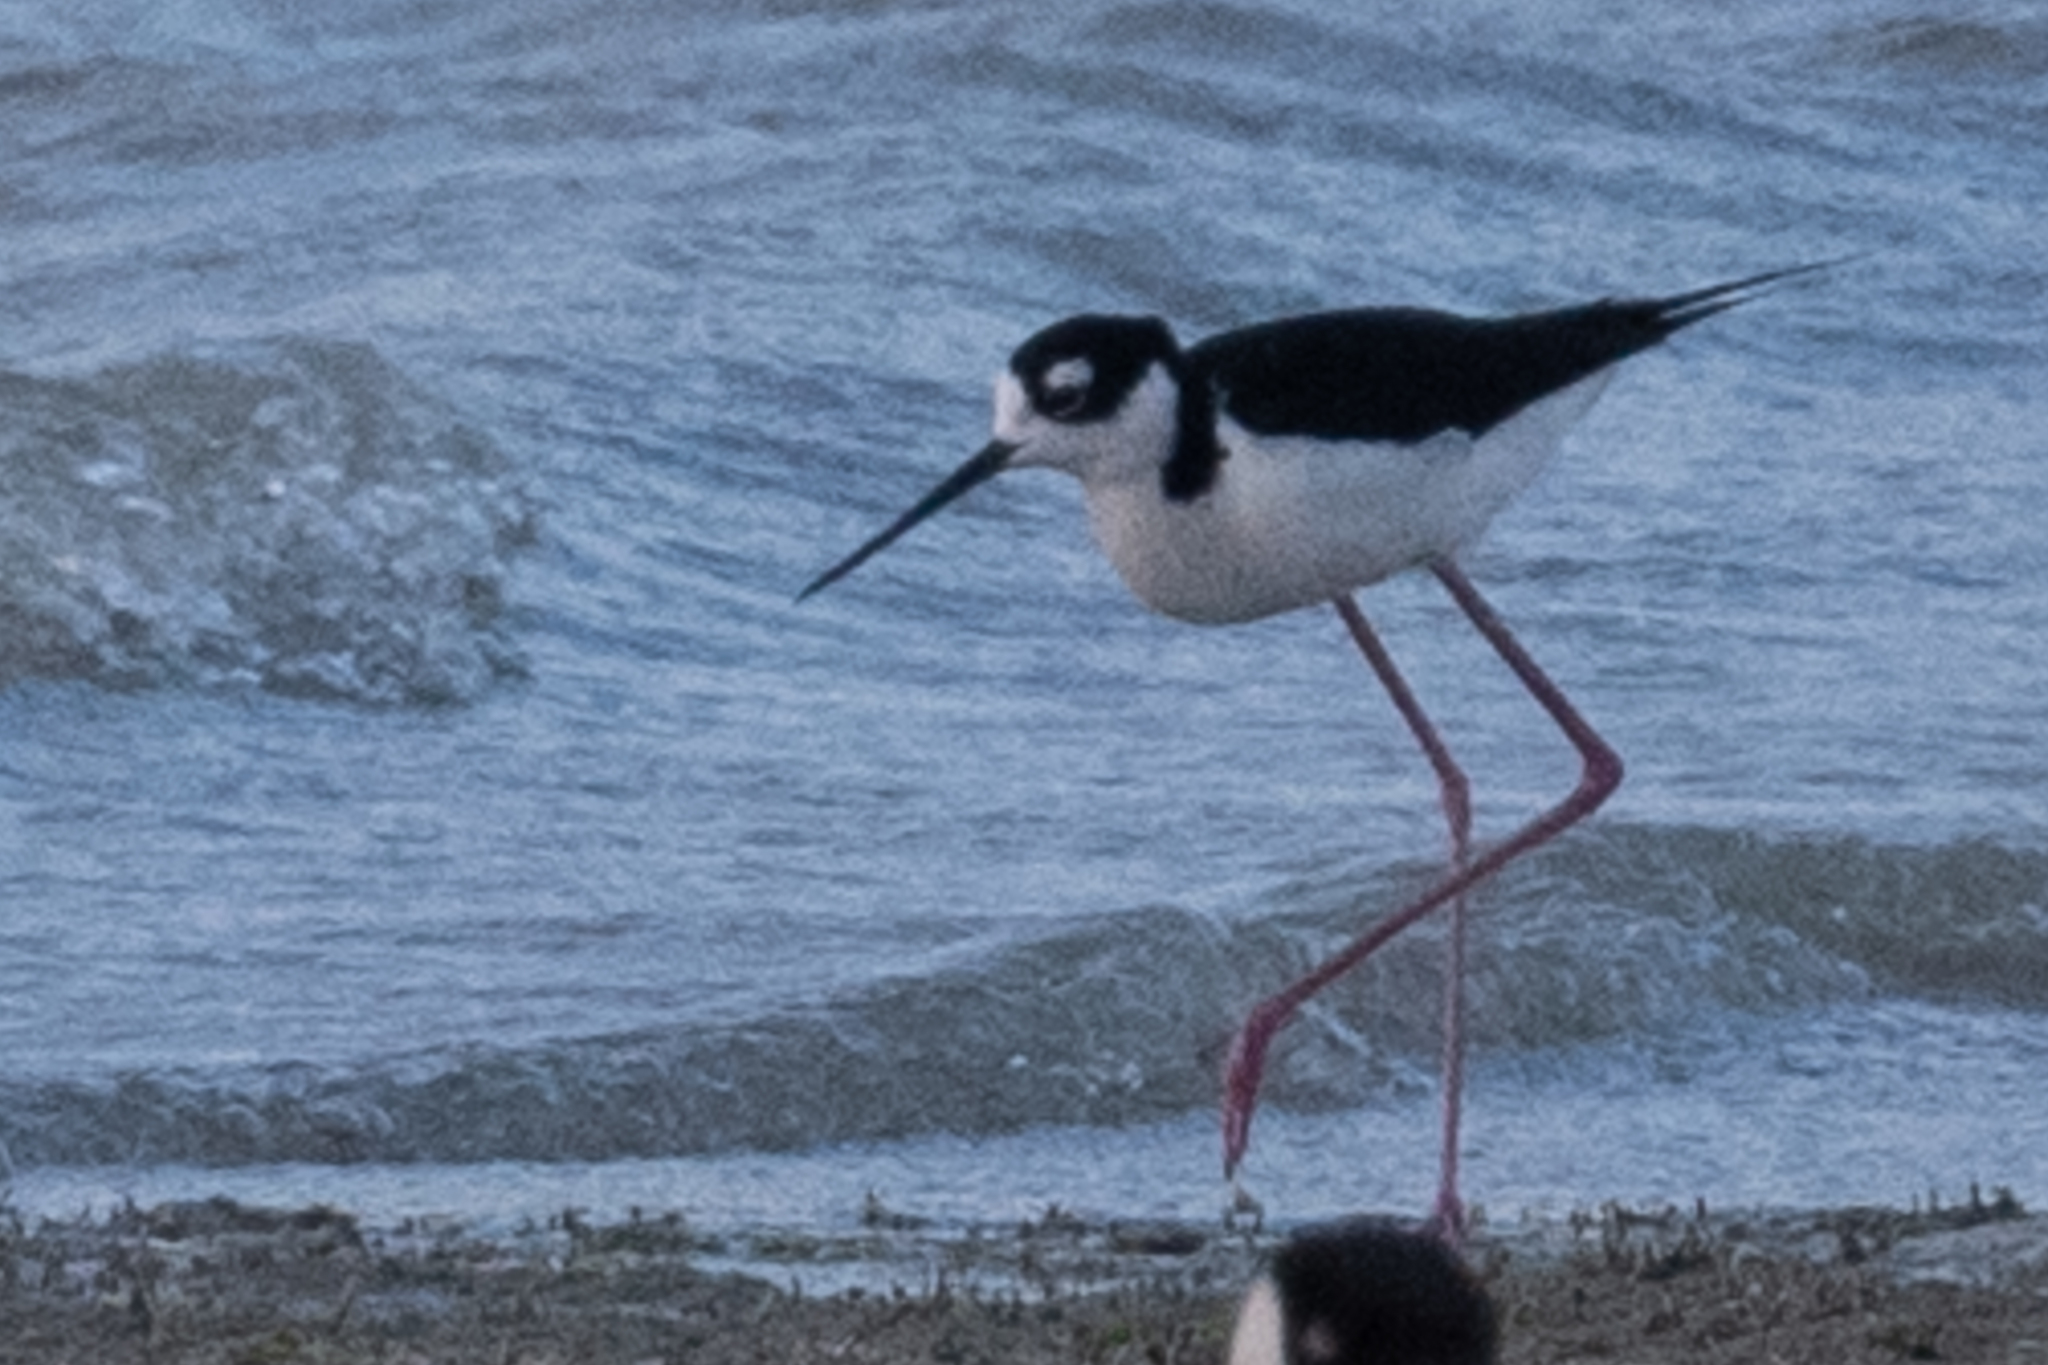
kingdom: Animalia
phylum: Chordata
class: Aves
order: Charadriiformes
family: Recurvirostridae
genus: Himantopus
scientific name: Himantopus mexicanus
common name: Black-necked stilt
